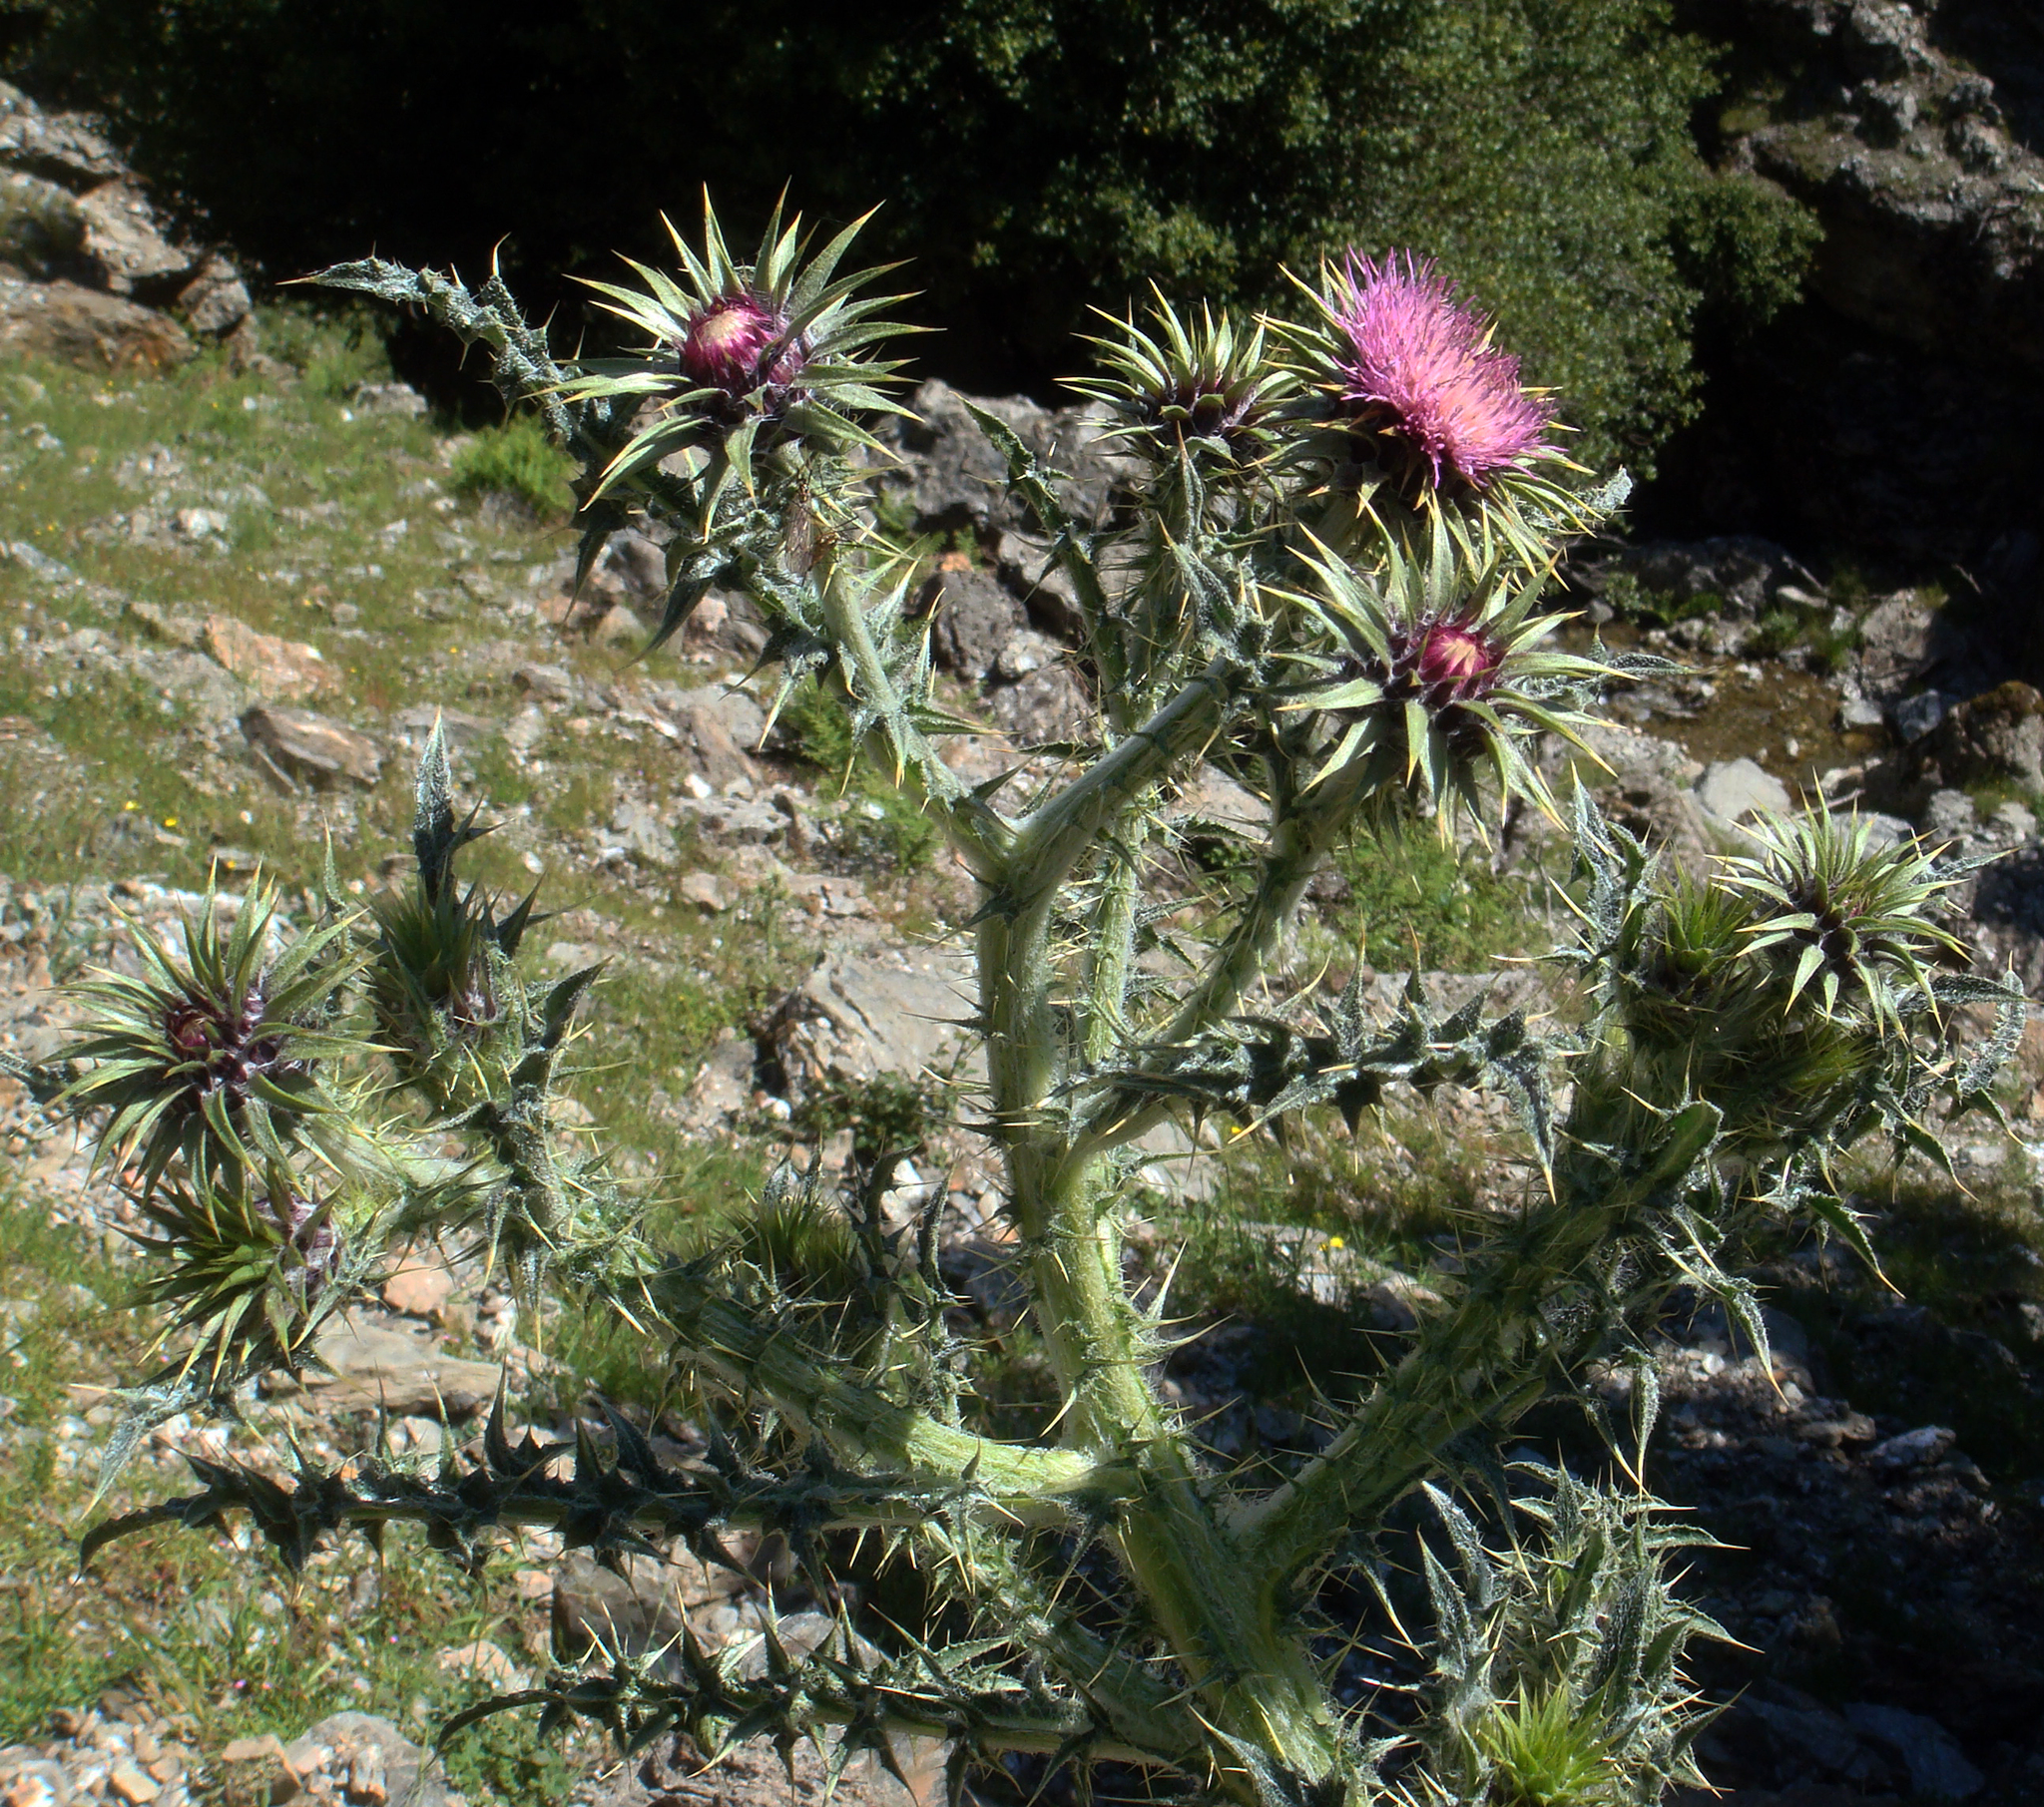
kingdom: Plantae
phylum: Tracheophyta
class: Magnoliopsida
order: Asterales
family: Asteraceae
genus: Carduus
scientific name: Carduus macrocephalus
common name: Giant thistle
